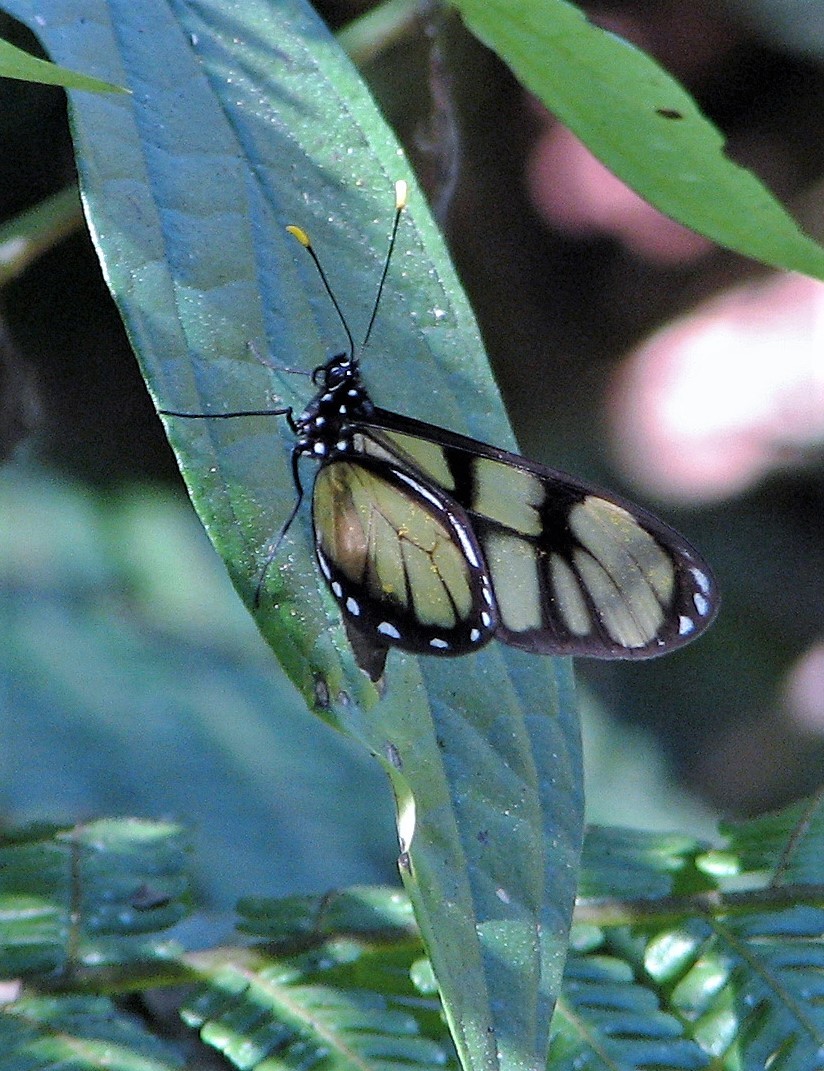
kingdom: Animalia
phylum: Arthropoda
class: Insecta
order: Lepidoptera
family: Nymphalidae
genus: Dircenna
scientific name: Dircenna dero
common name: Dero clearwing
